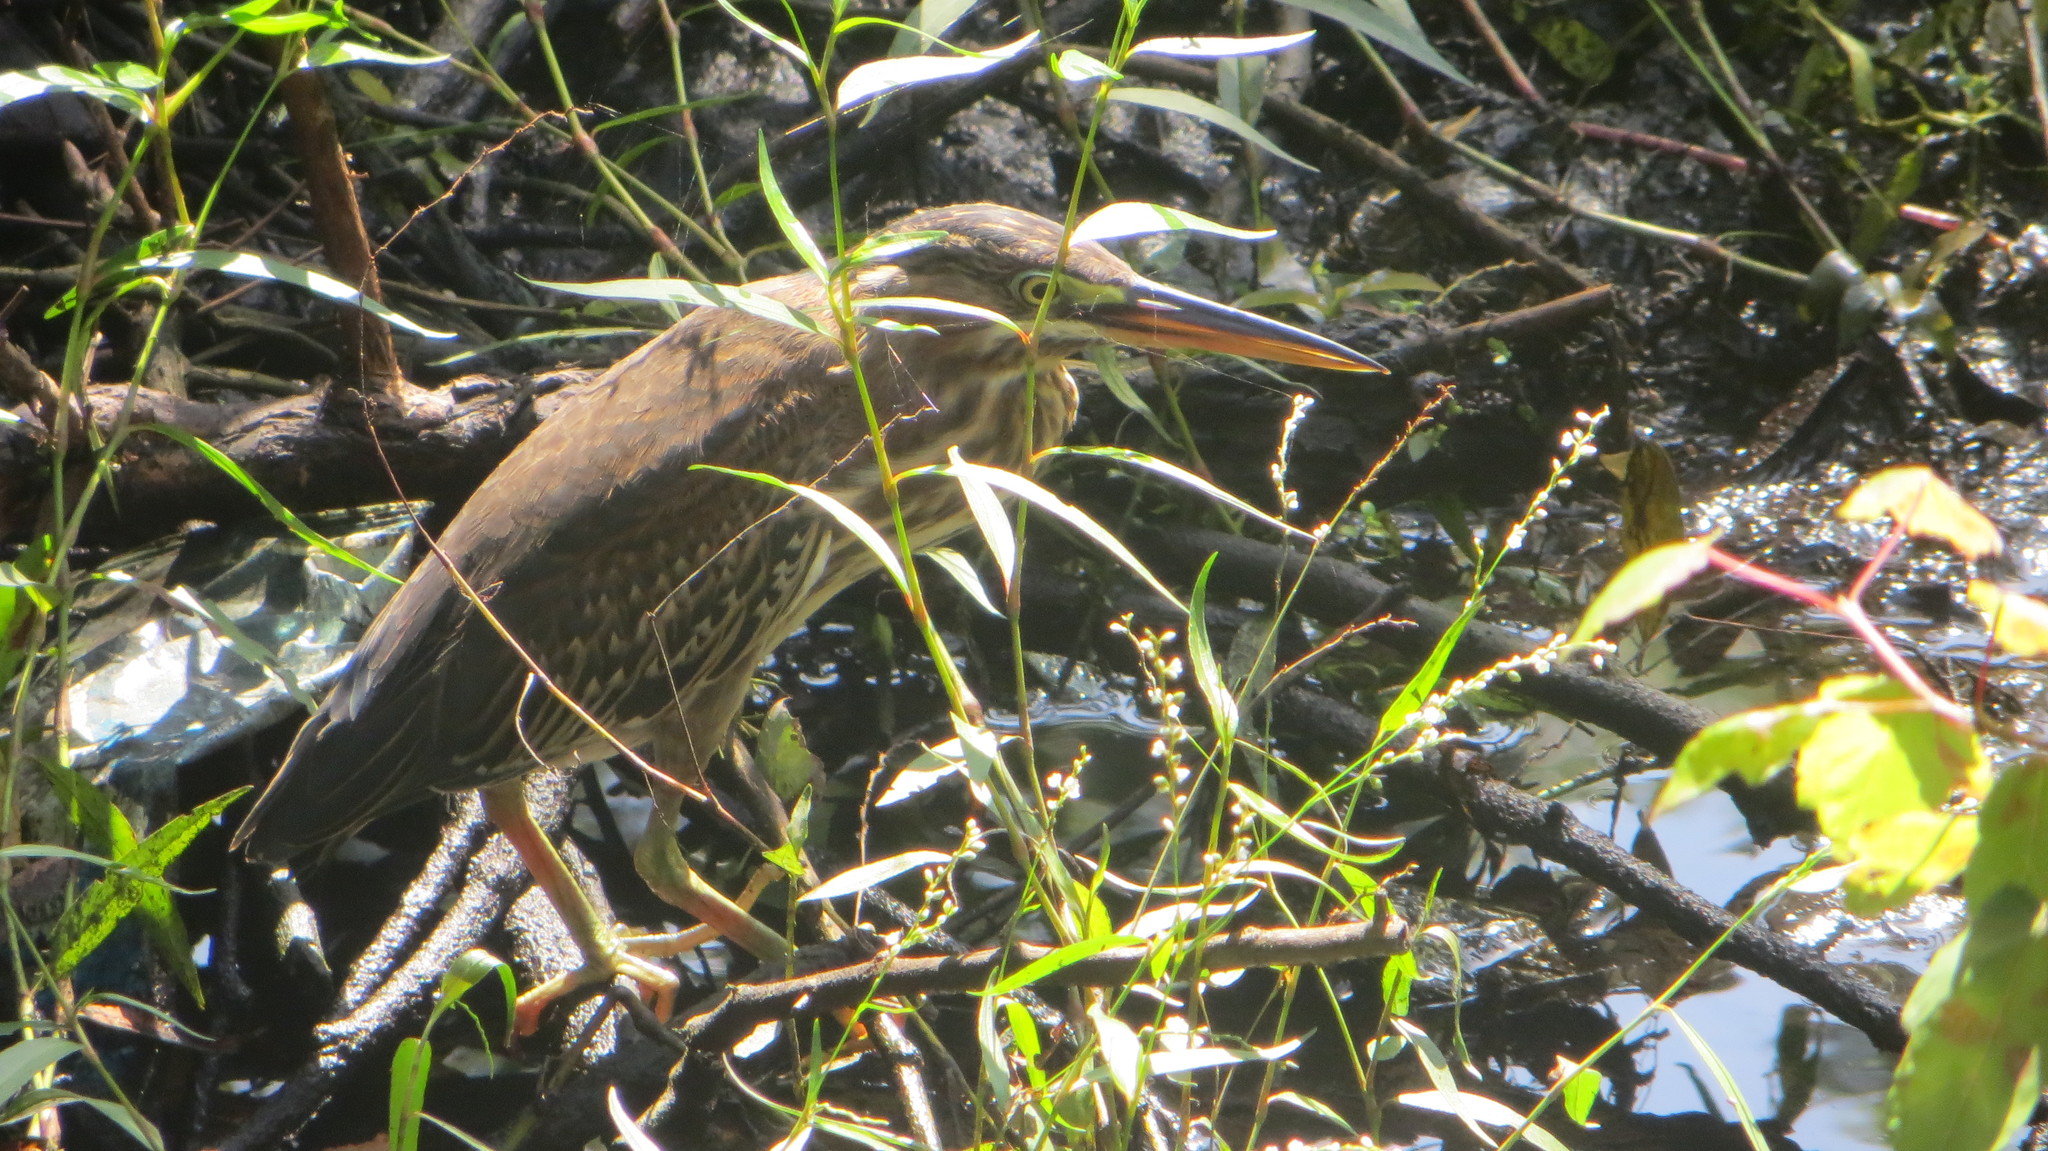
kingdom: Animalia
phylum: Chordata
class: Aves
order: Pelecaniformes
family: Ardeidae
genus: Butorides
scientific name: Butorides virescens
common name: Green heron
